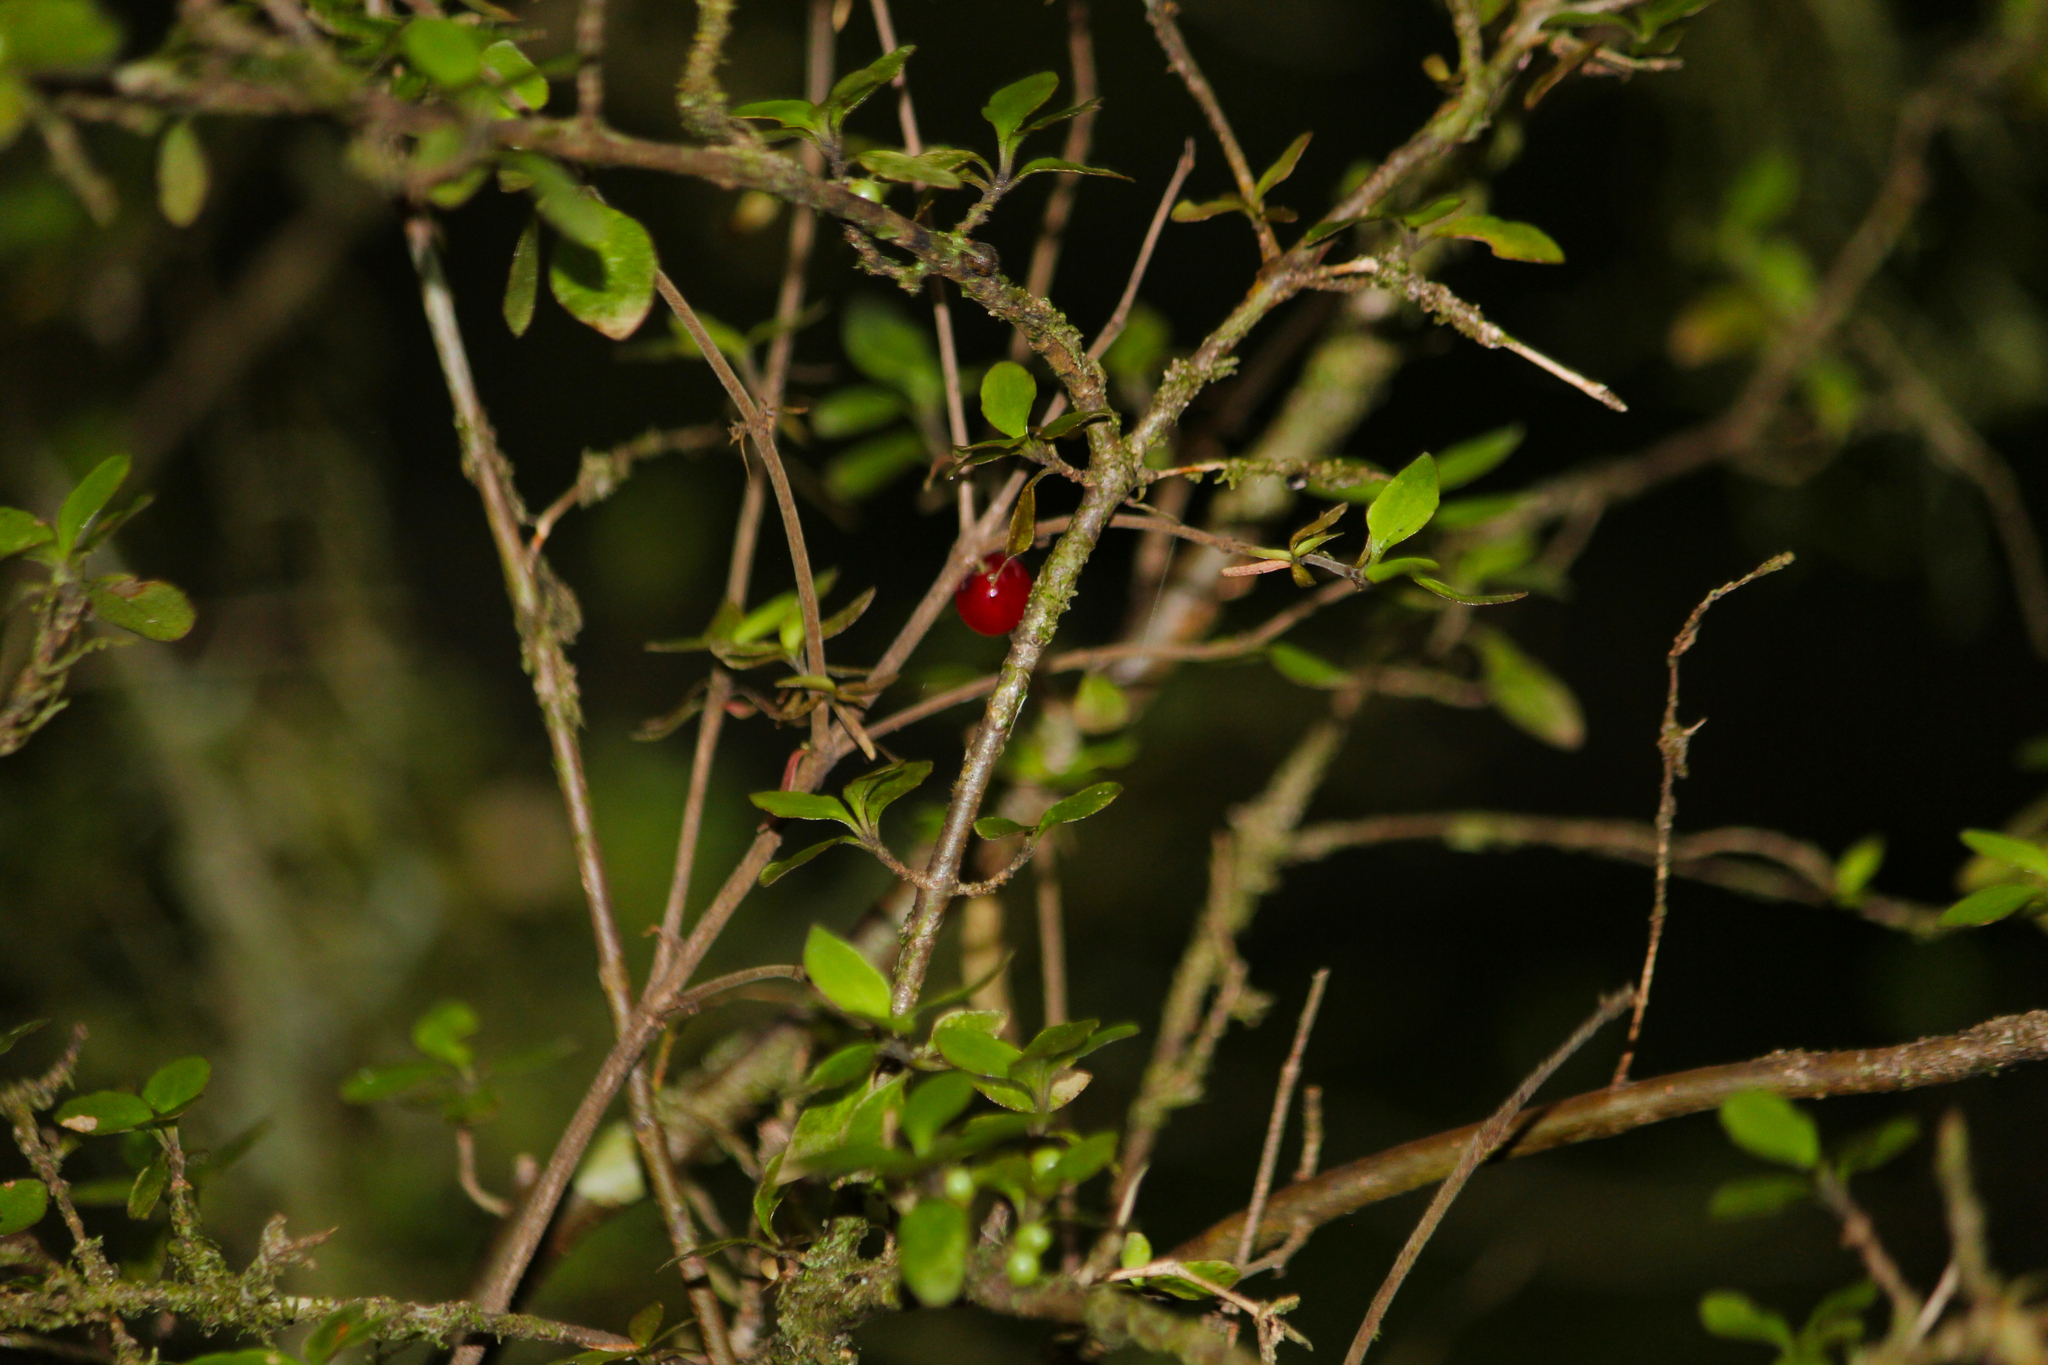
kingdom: Plantae
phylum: Tracheophyta
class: Magnoliopsida
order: Gentianales
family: Rubiaceae
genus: Coprosma
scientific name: Coprosma rhamnoides
